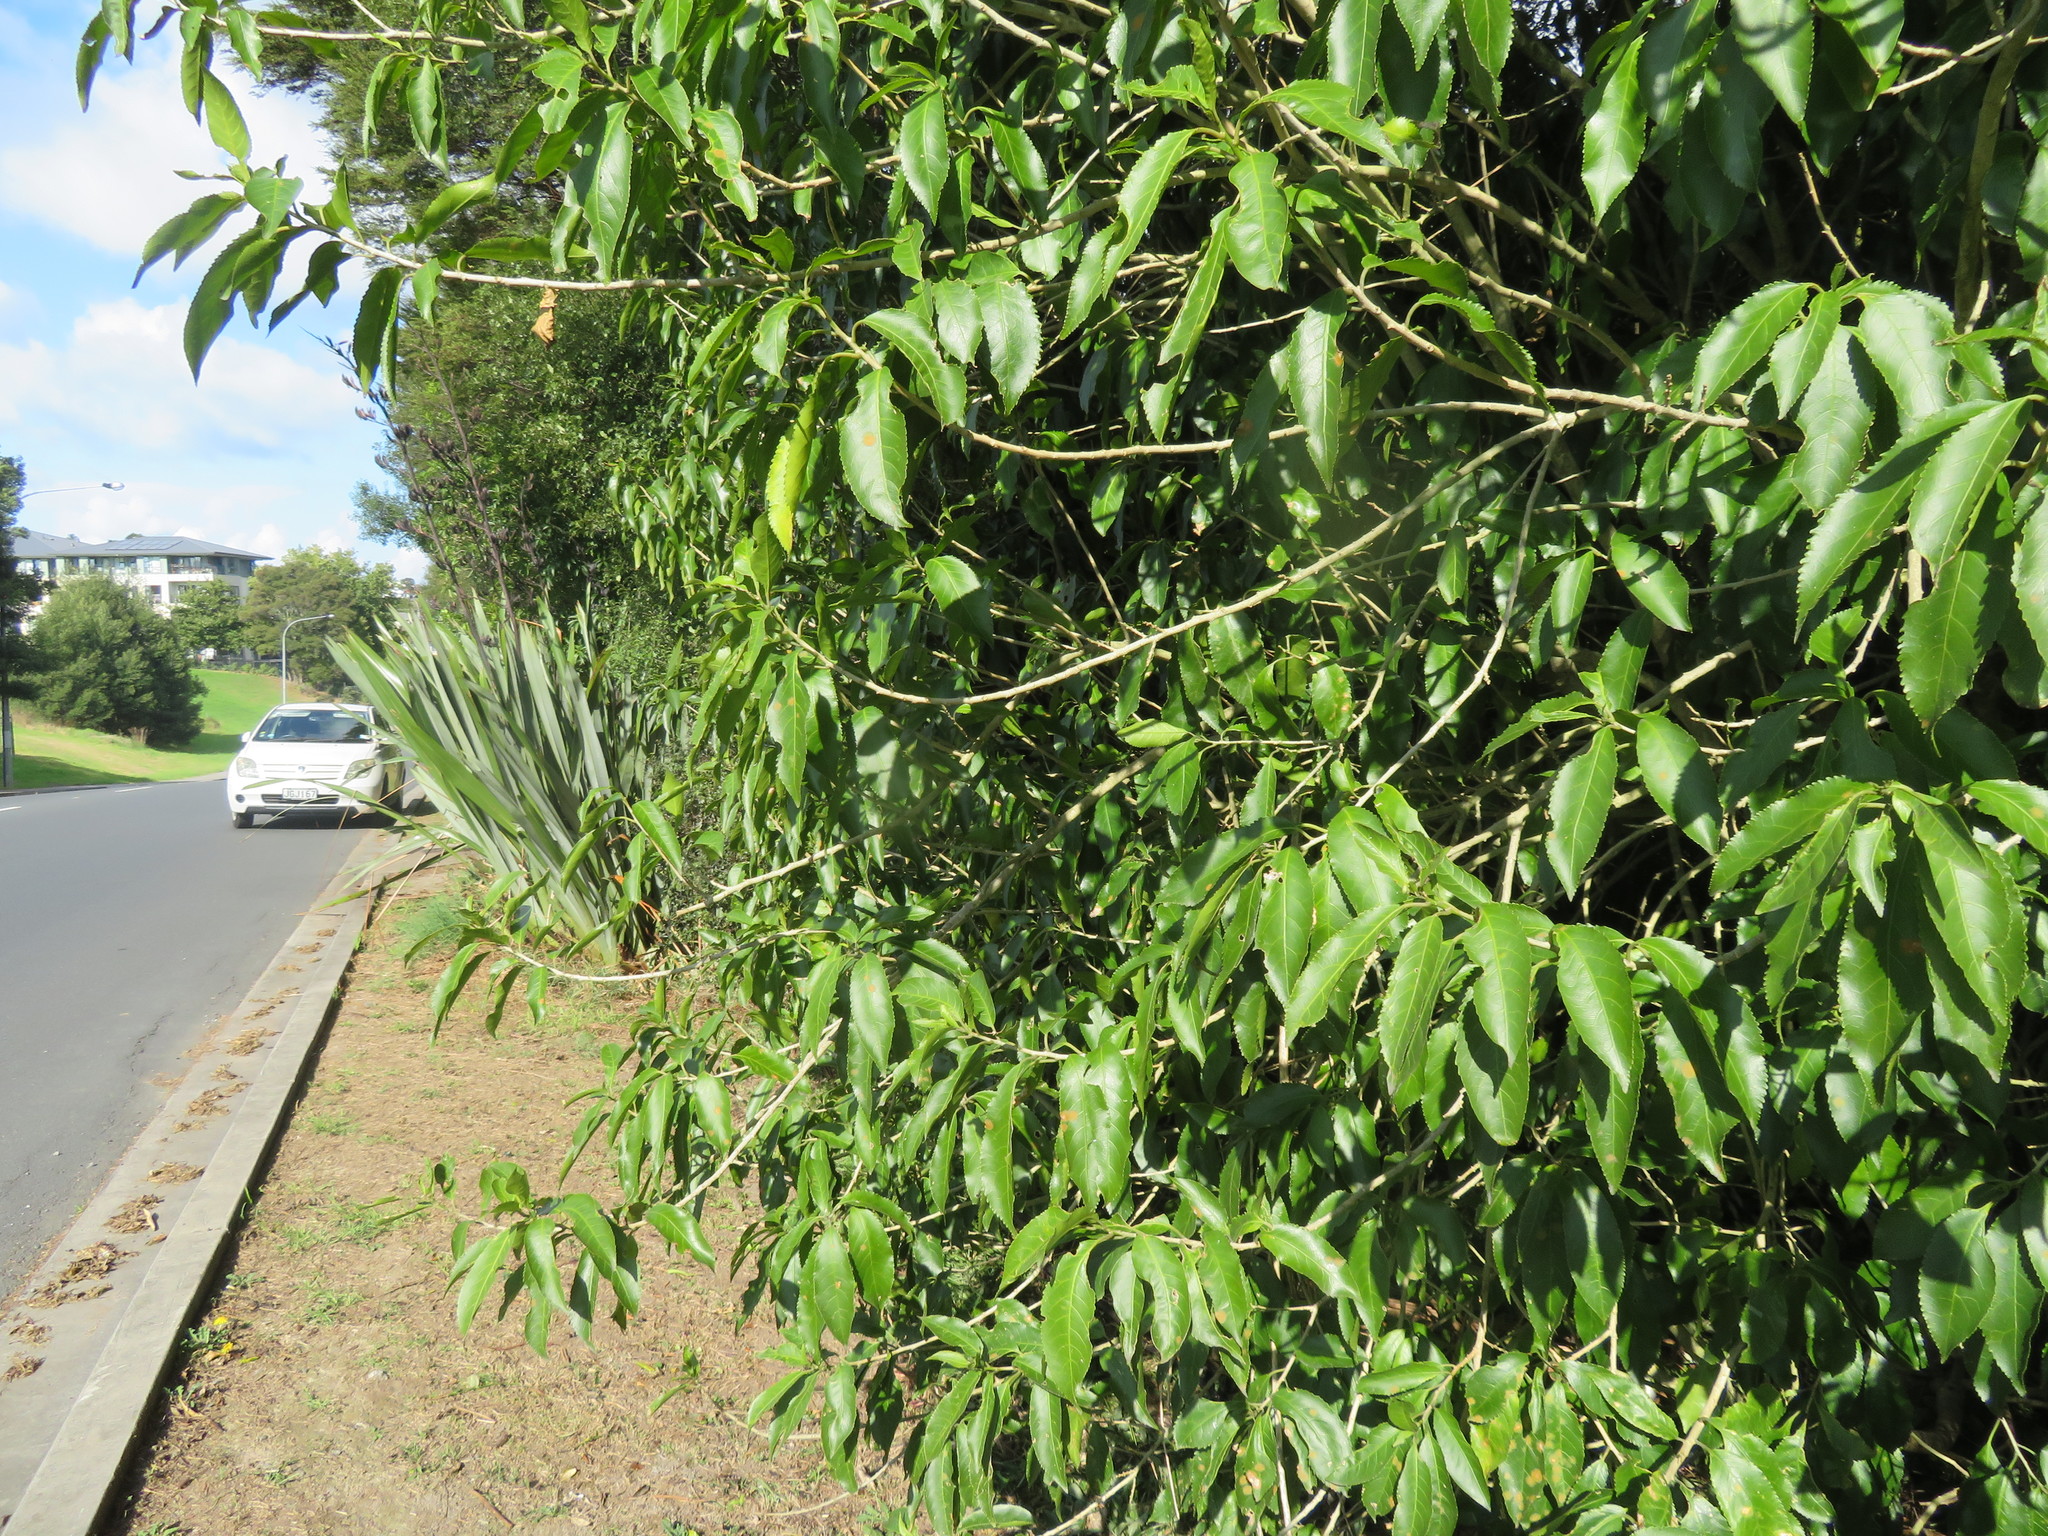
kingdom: Plantae
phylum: Tracheophyta
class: Magnoliopsida
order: Malpighiales
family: Violaceae
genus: Melicytus
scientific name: Melicytus ramiflorus
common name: Mahoe
